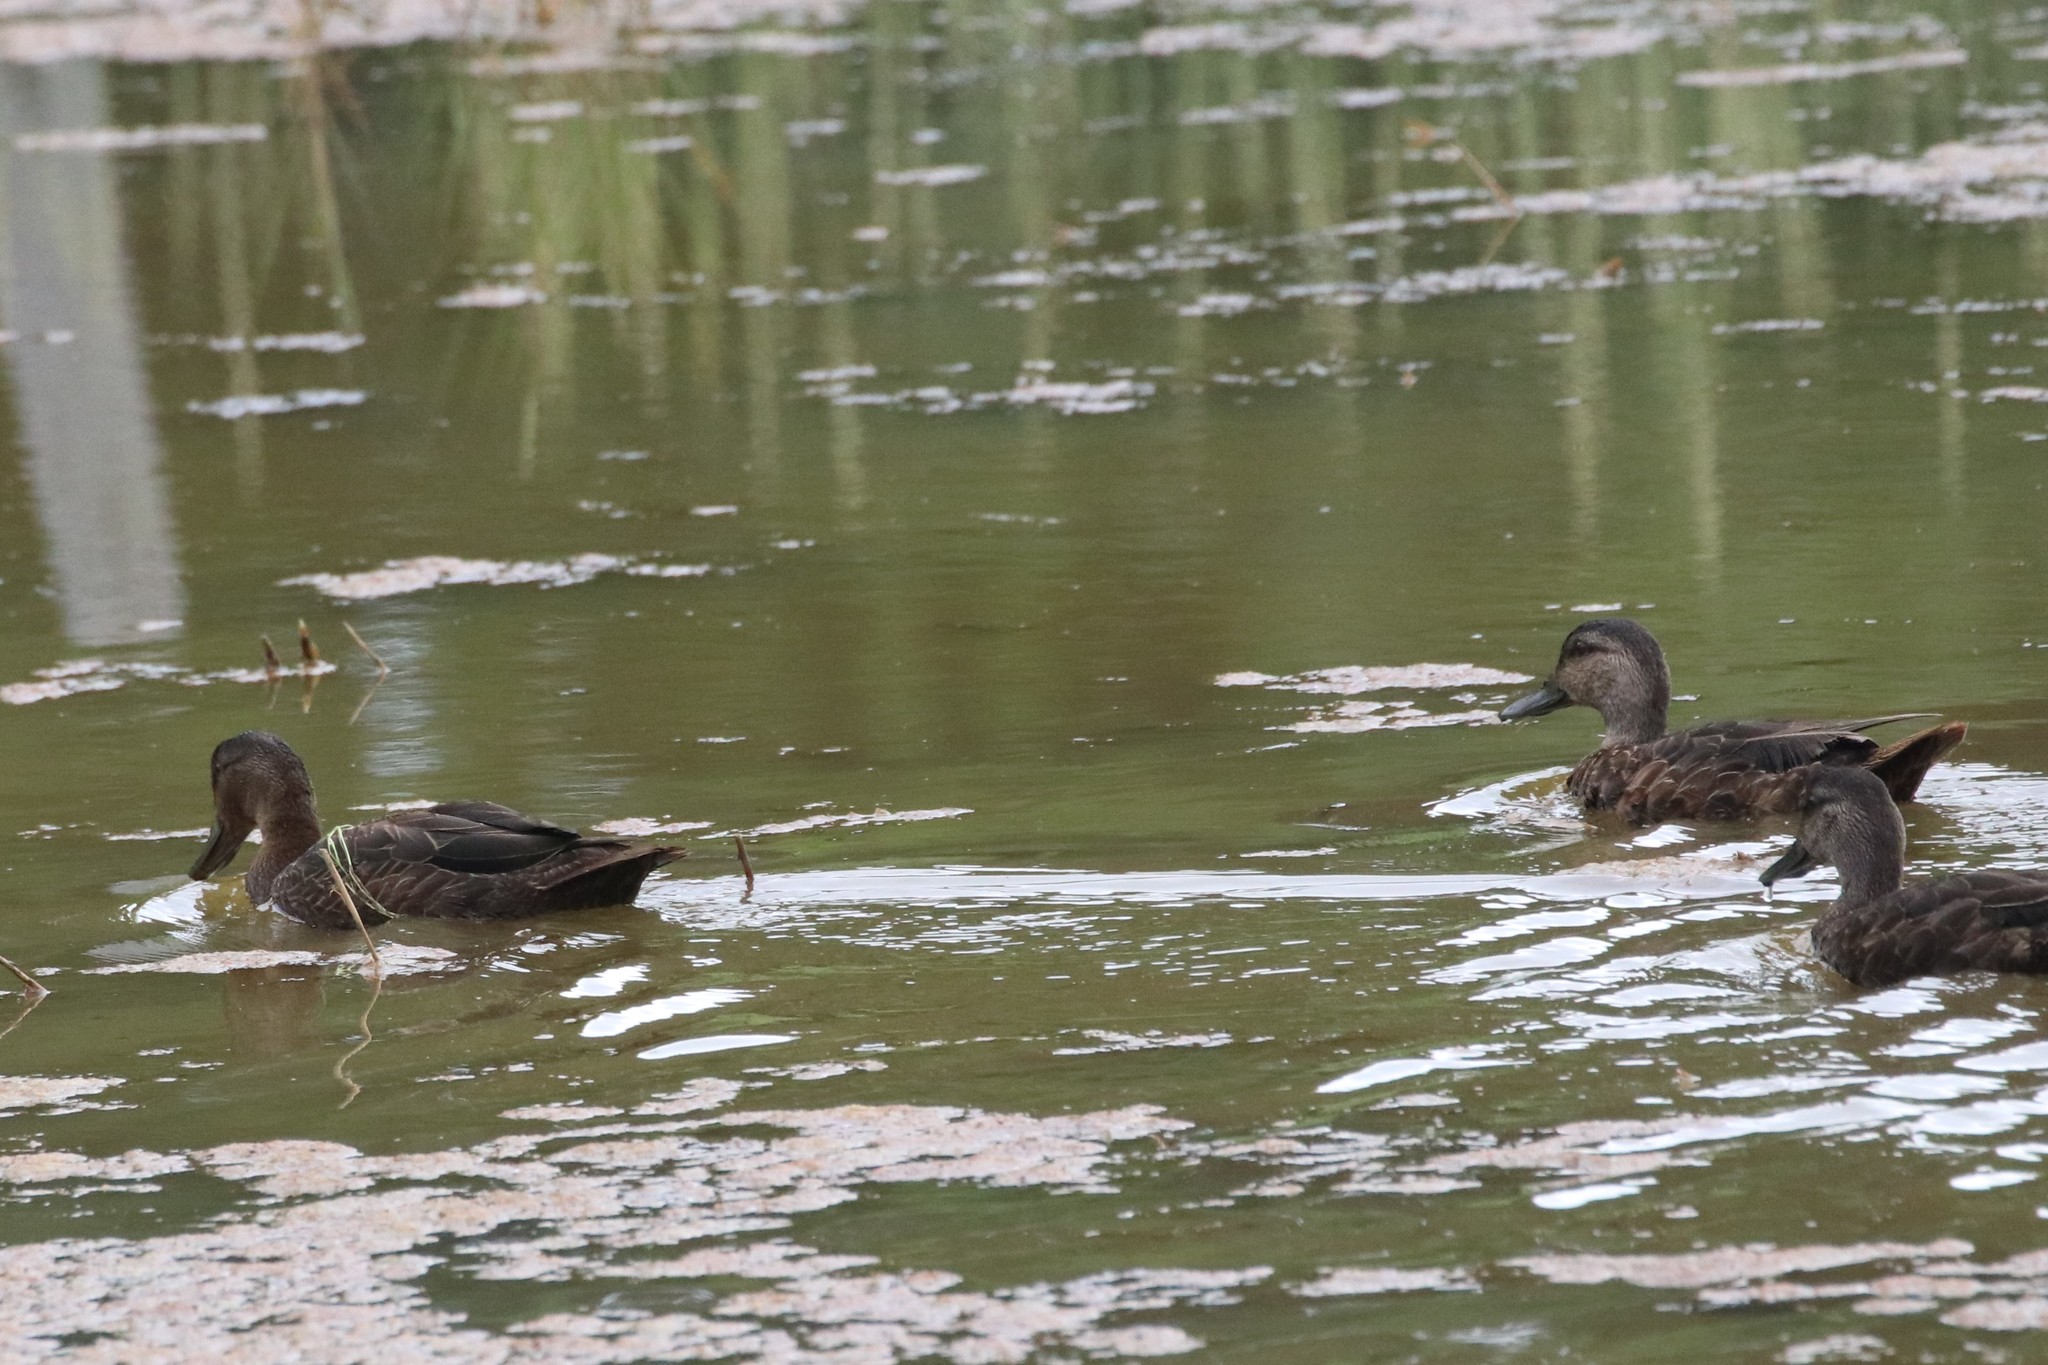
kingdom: Animalia
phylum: Chordata
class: Aves
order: Anseriformes
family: Anatidae
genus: Anas
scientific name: Anas rubripes
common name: American black duck
